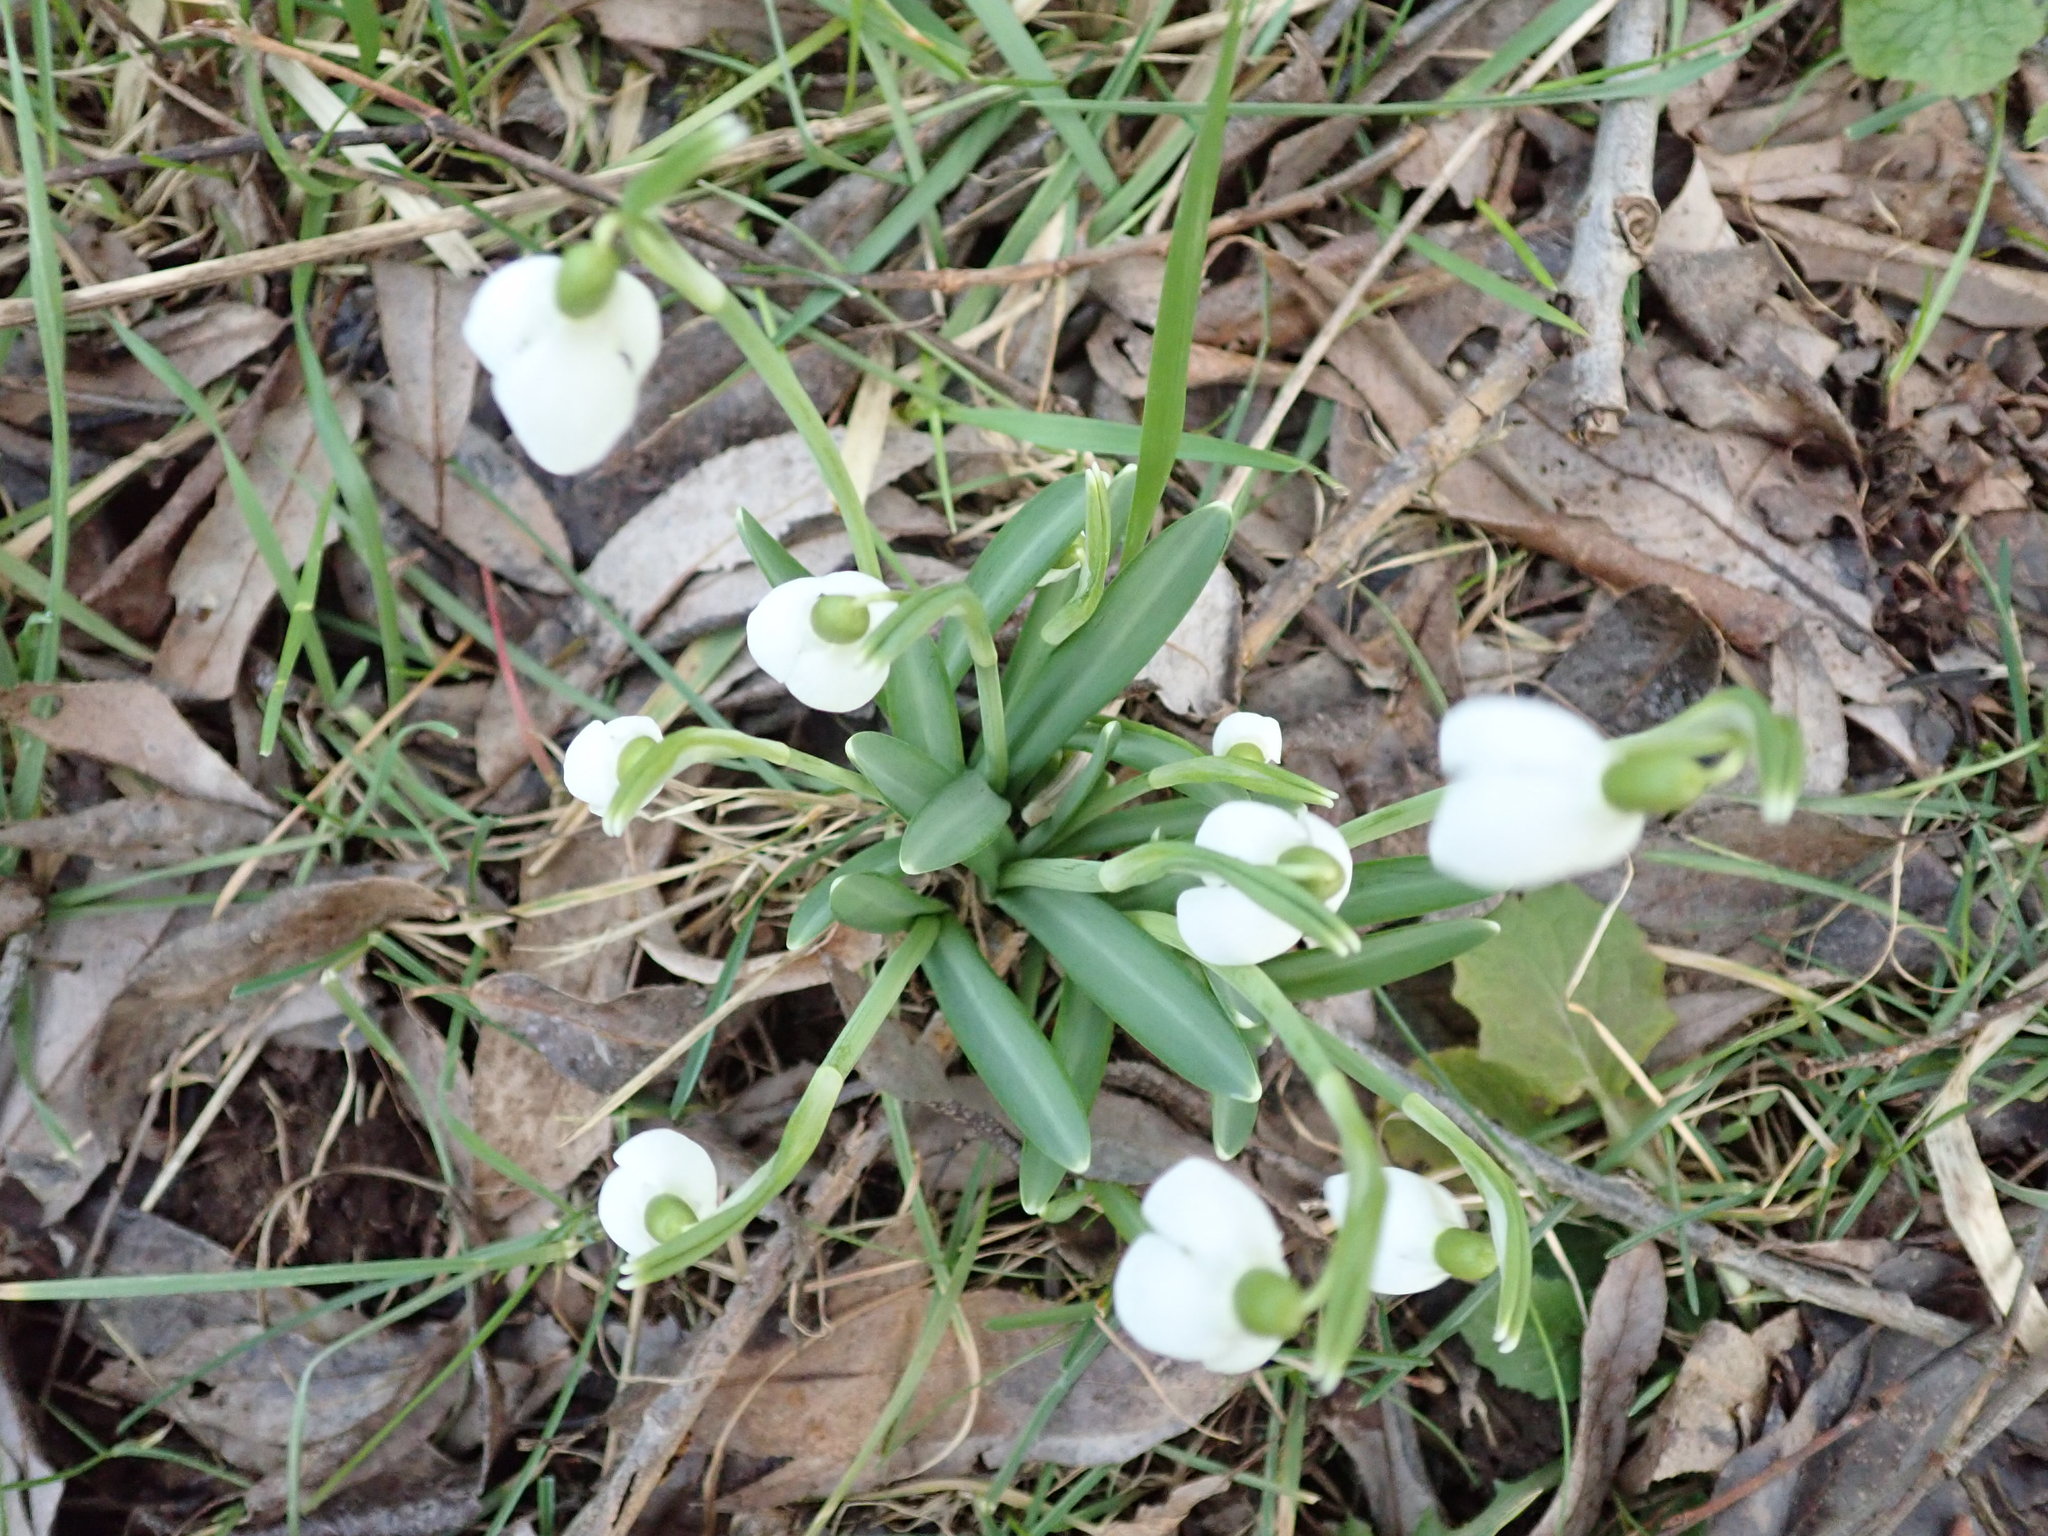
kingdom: Plantae
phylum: Tracheophyta
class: Liliopsida
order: Asparagales
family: Amaryllidaceae
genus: Galanthus
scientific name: Galanthus nivalis
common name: Snowdrop
